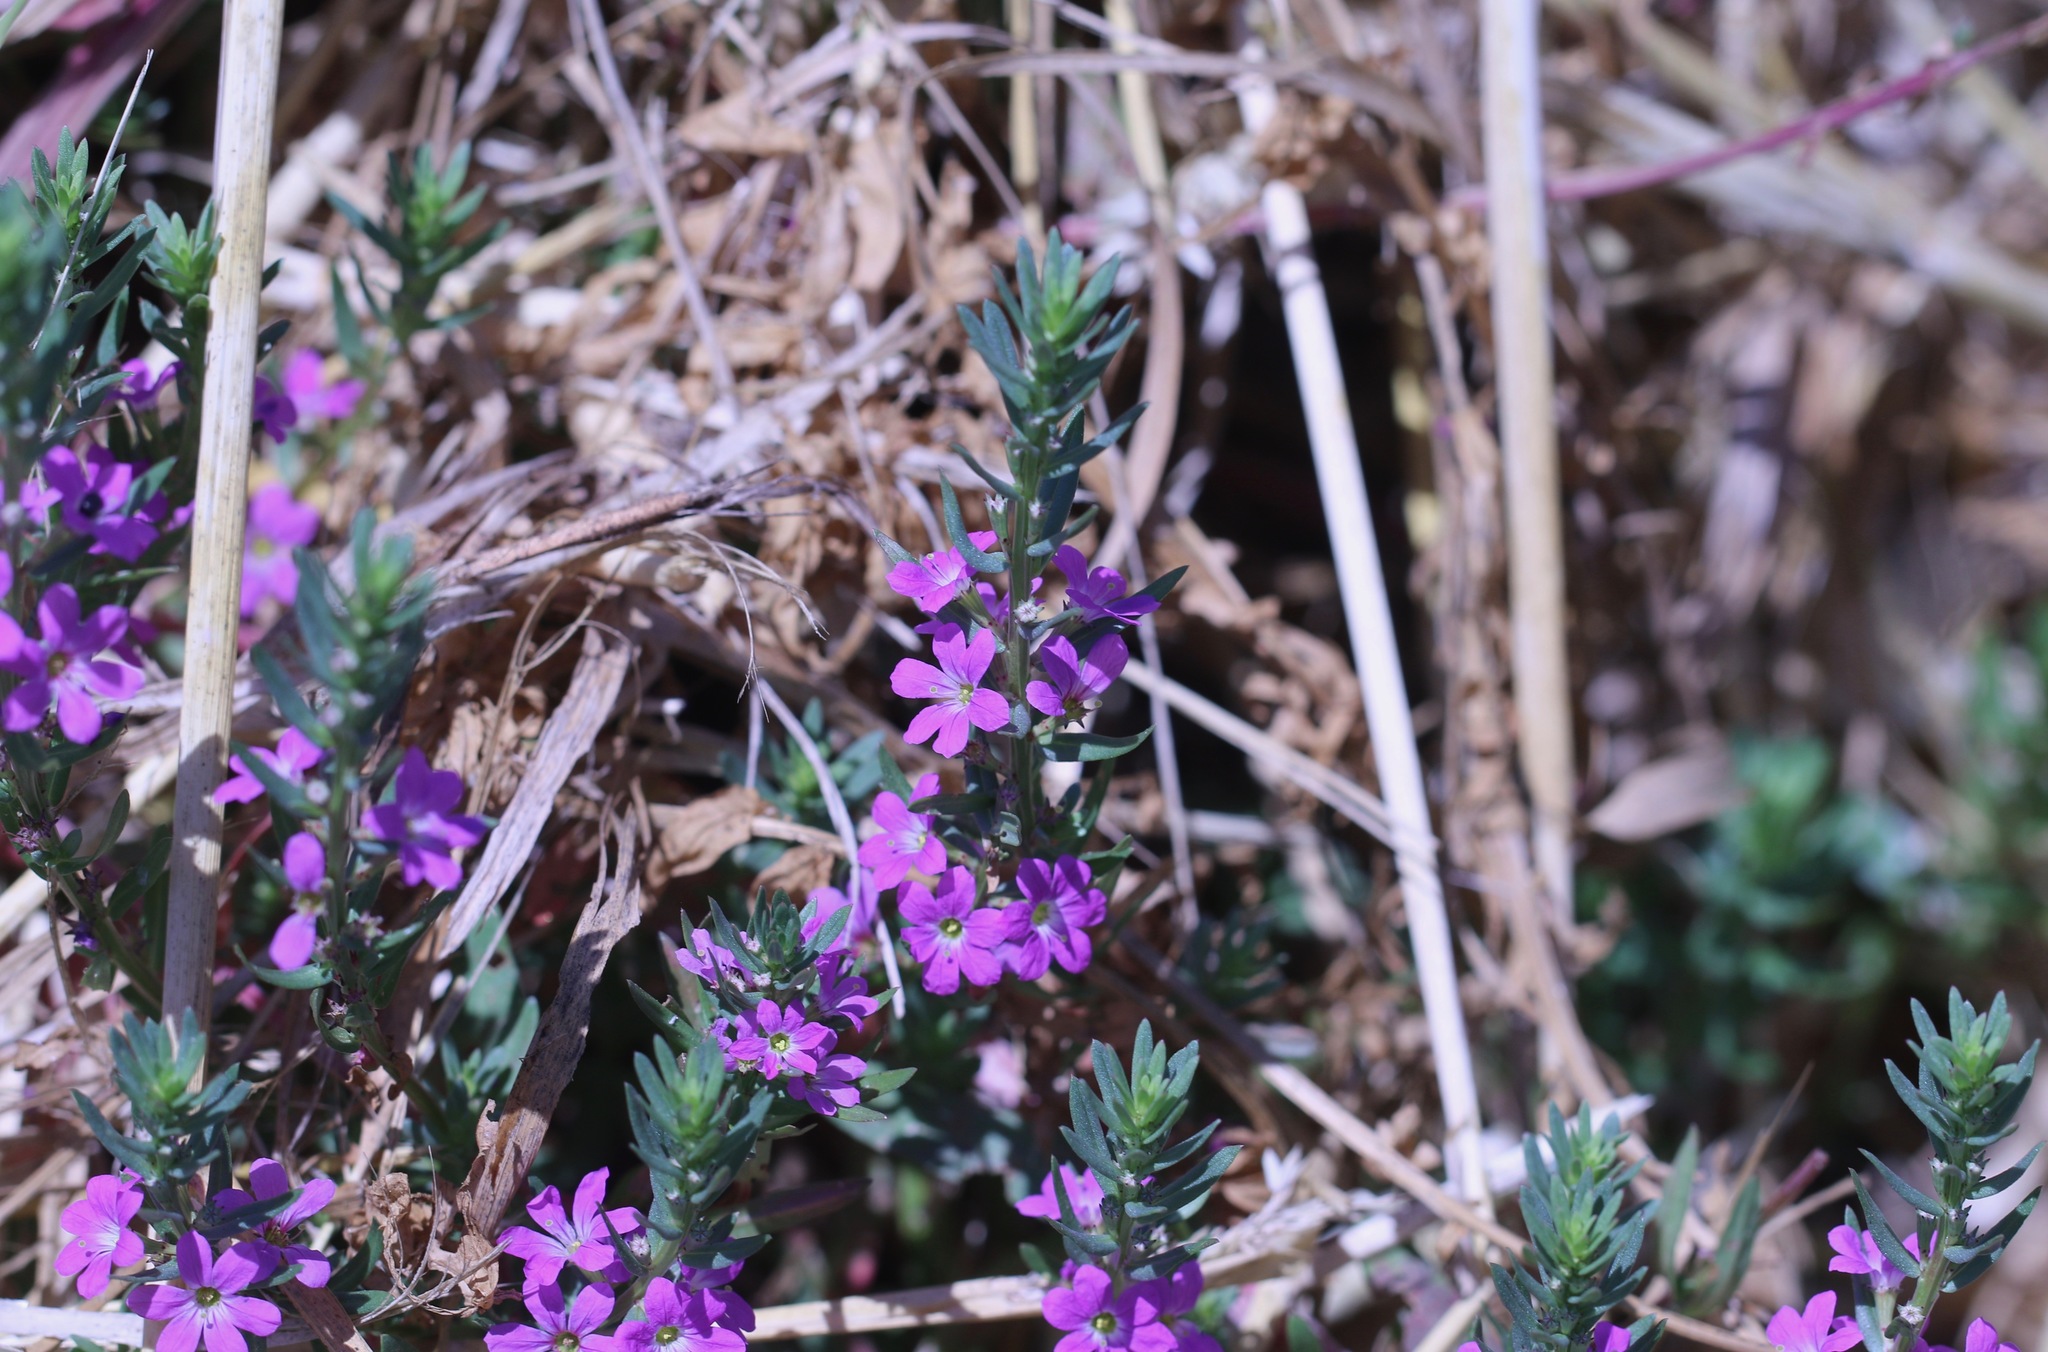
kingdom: Plantae
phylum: Tracheophyta
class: Magnoliopsida
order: Myrtales
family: Lythraceae
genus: Lythrum
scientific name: Lythrum junceum
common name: False grass-poly
